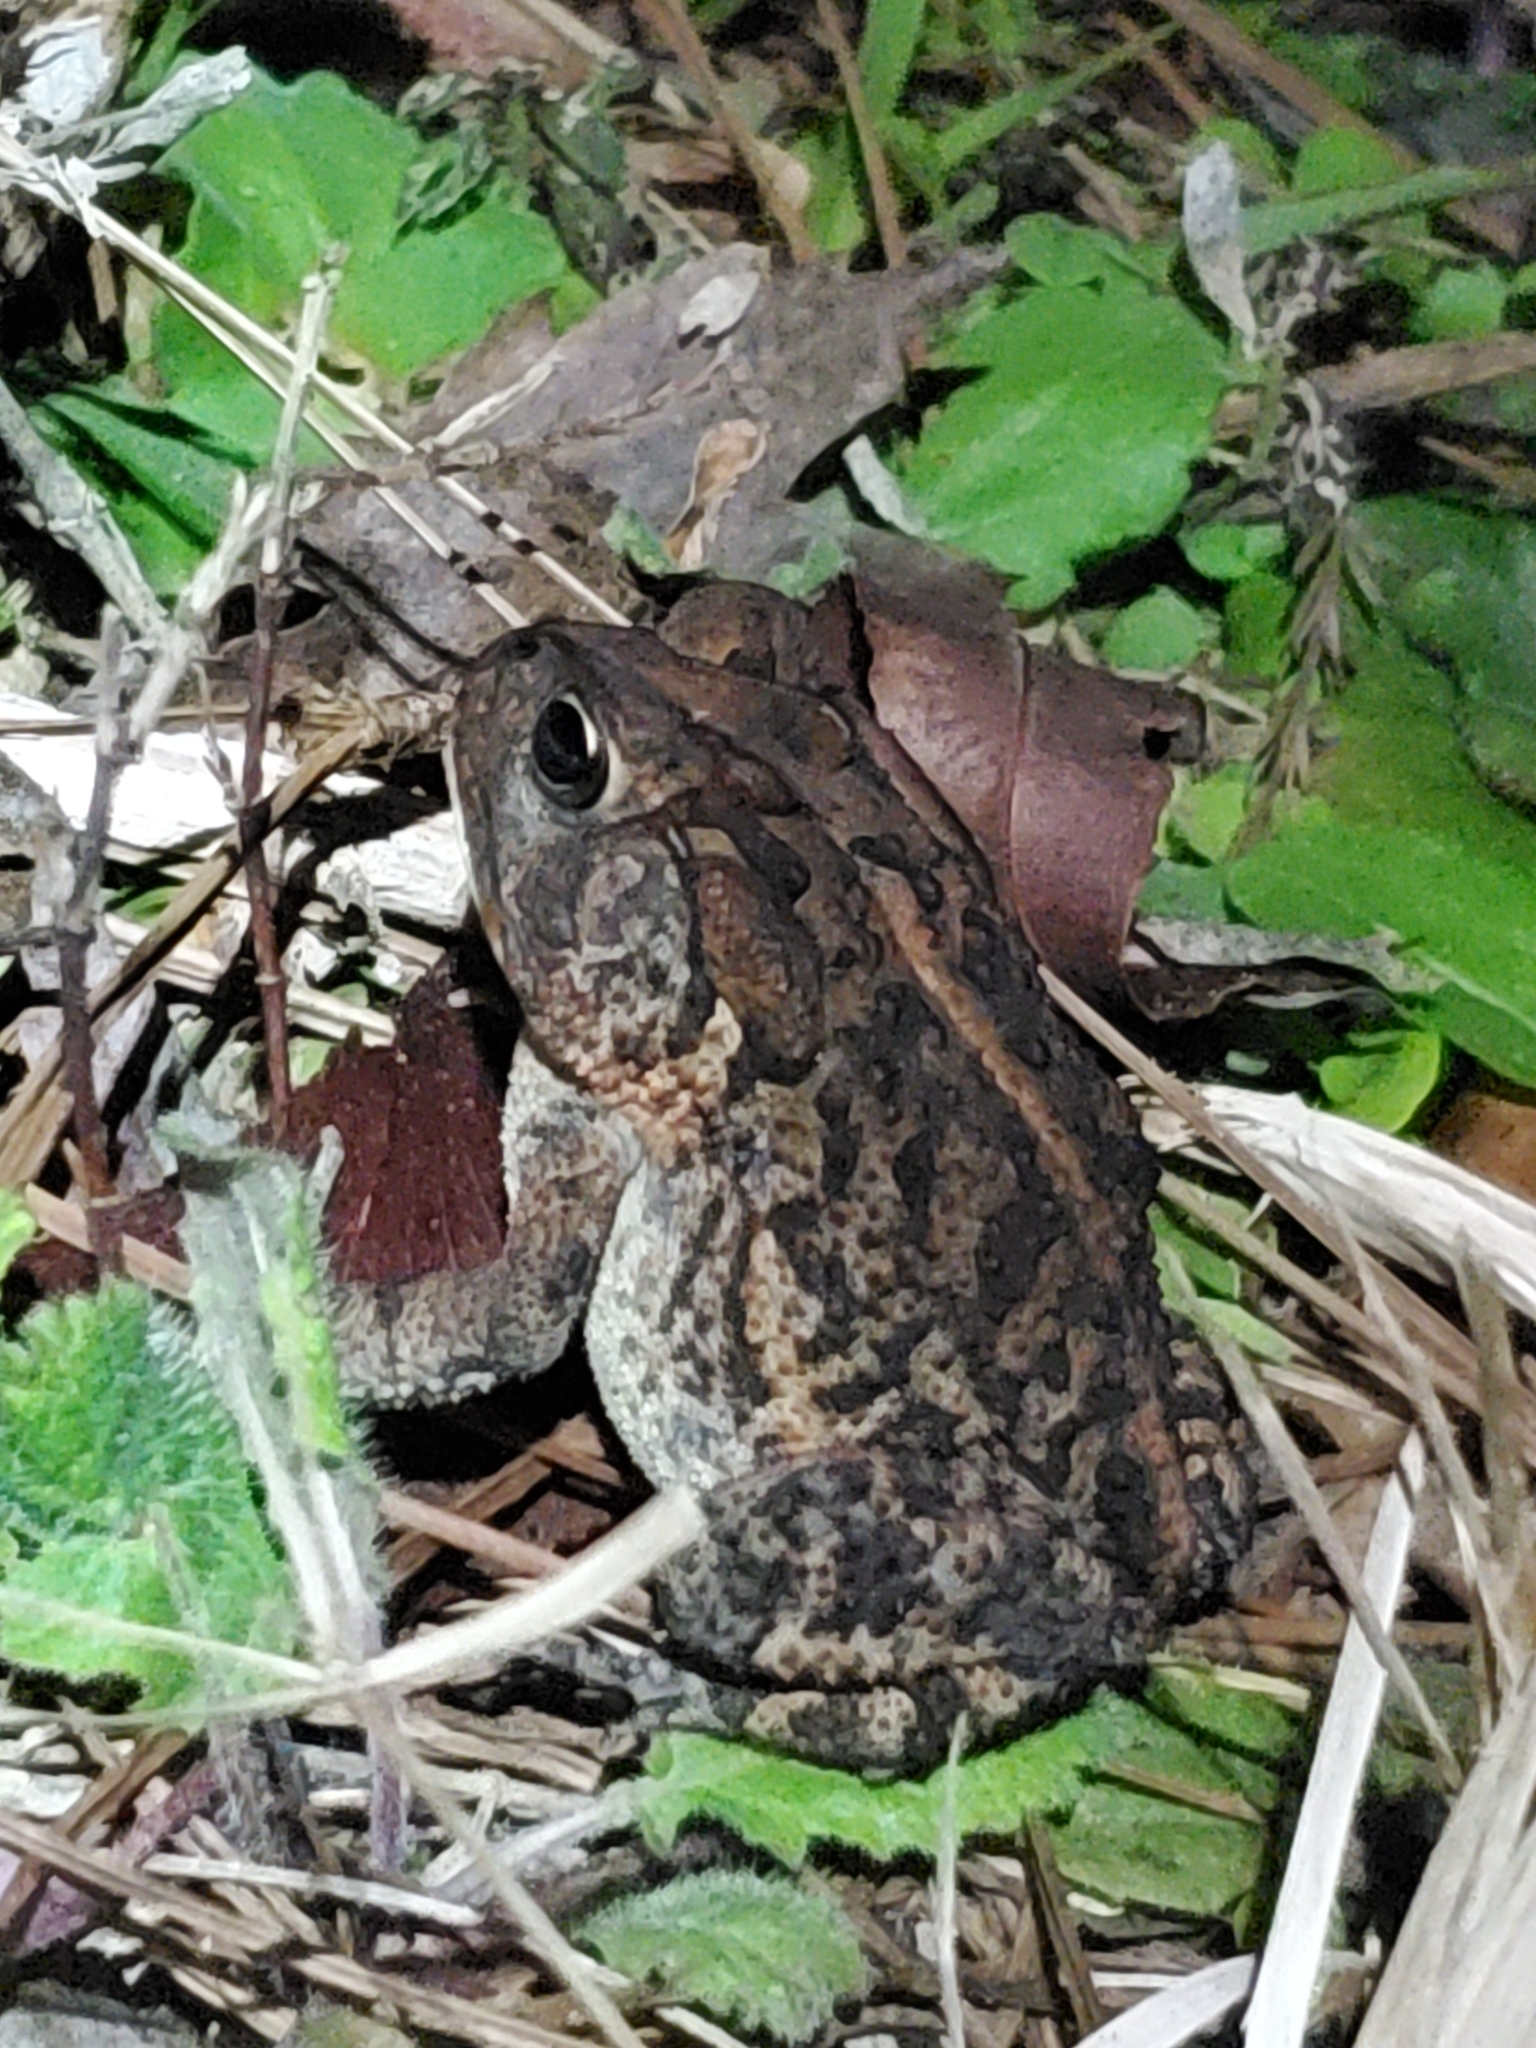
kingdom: Animalia
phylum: Chordata
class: Amphibia
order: Anura
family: Bufonidae
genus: Anaxyrus
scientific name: Anaxyrus terrestris
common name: Southern toad
